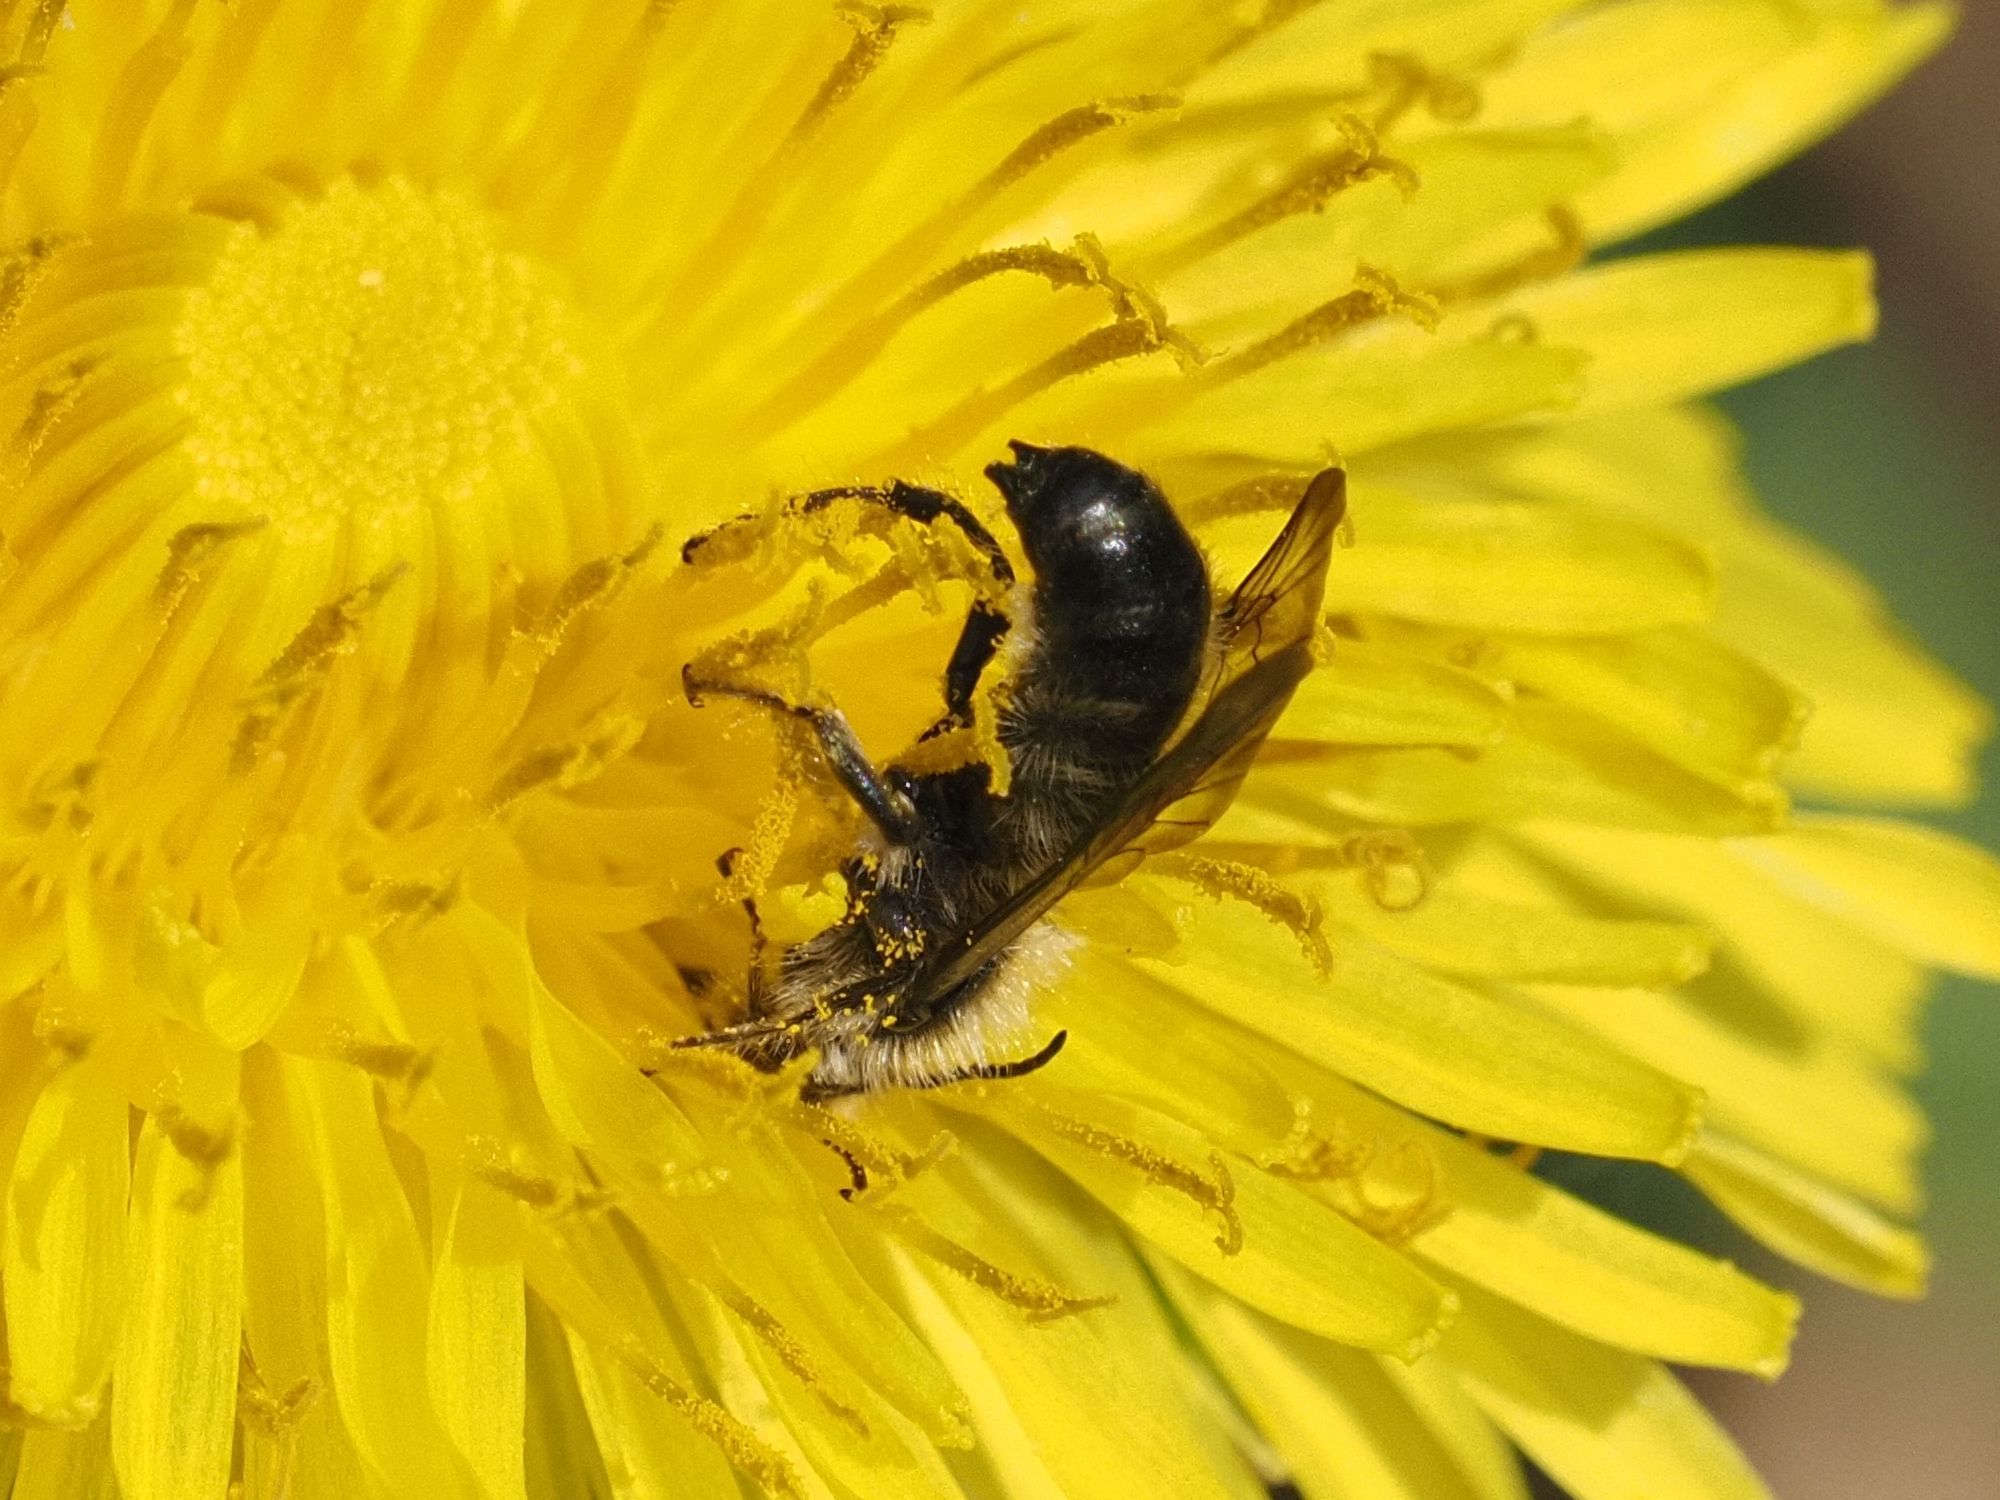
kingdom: Animalia
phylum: Arthropoda
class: Insecta
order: Hymenoptera
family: Megachilidae
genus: Chelostoma
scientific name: Chelostoma florisomne
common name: Sleepy carpenter bee
